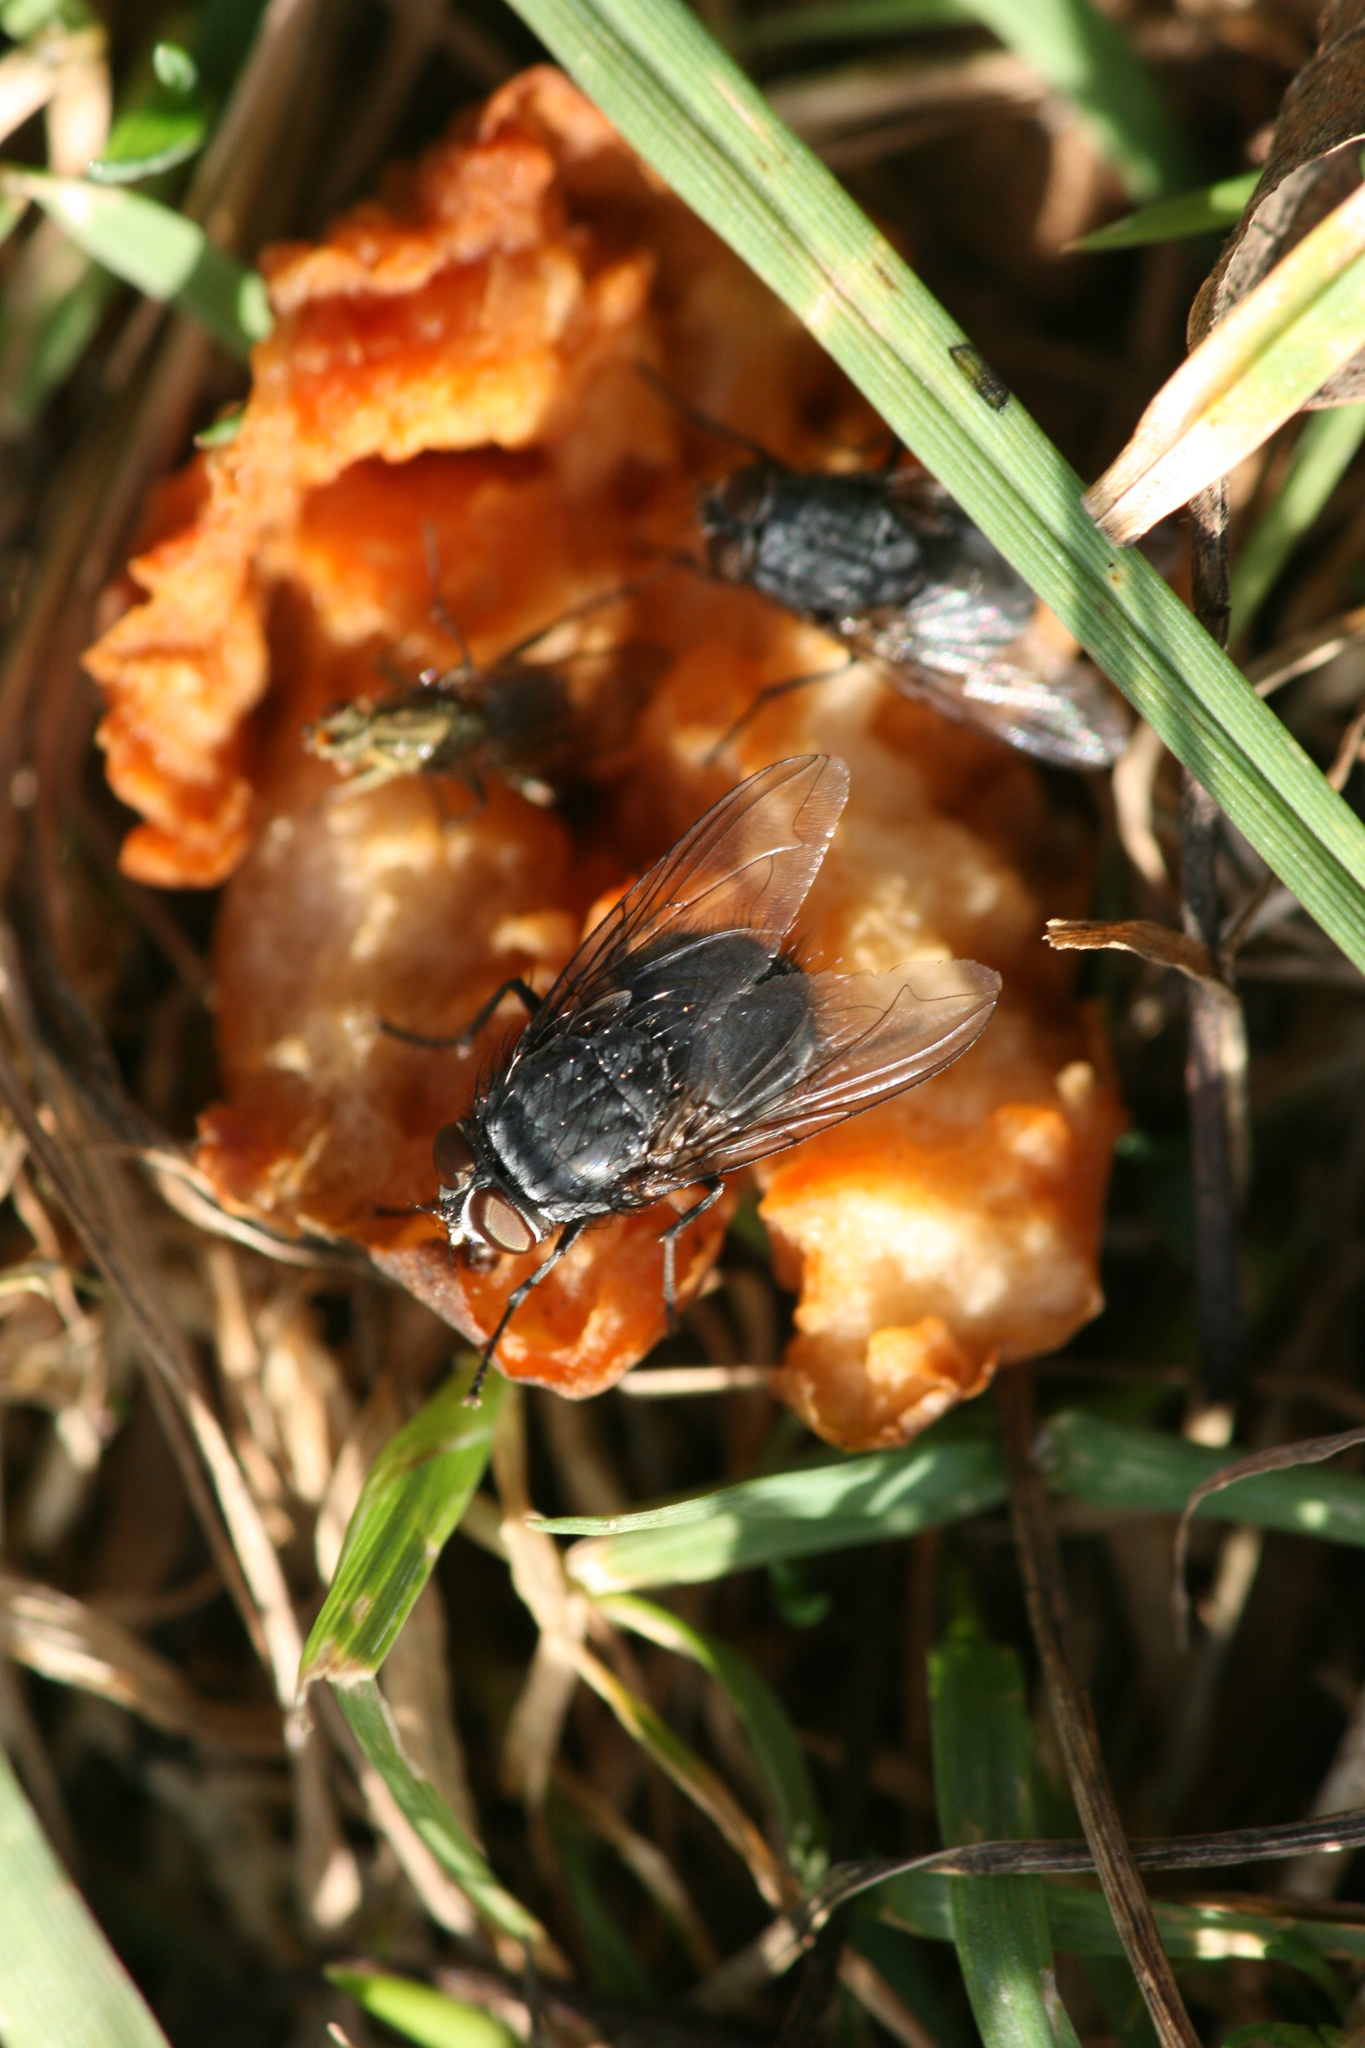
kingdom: Animalia
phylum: Arthropoda
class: Insecta
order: Diptera
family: Calliphoridae
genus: Calliphora
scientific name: Calliphora vicina
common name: Common blow flie
